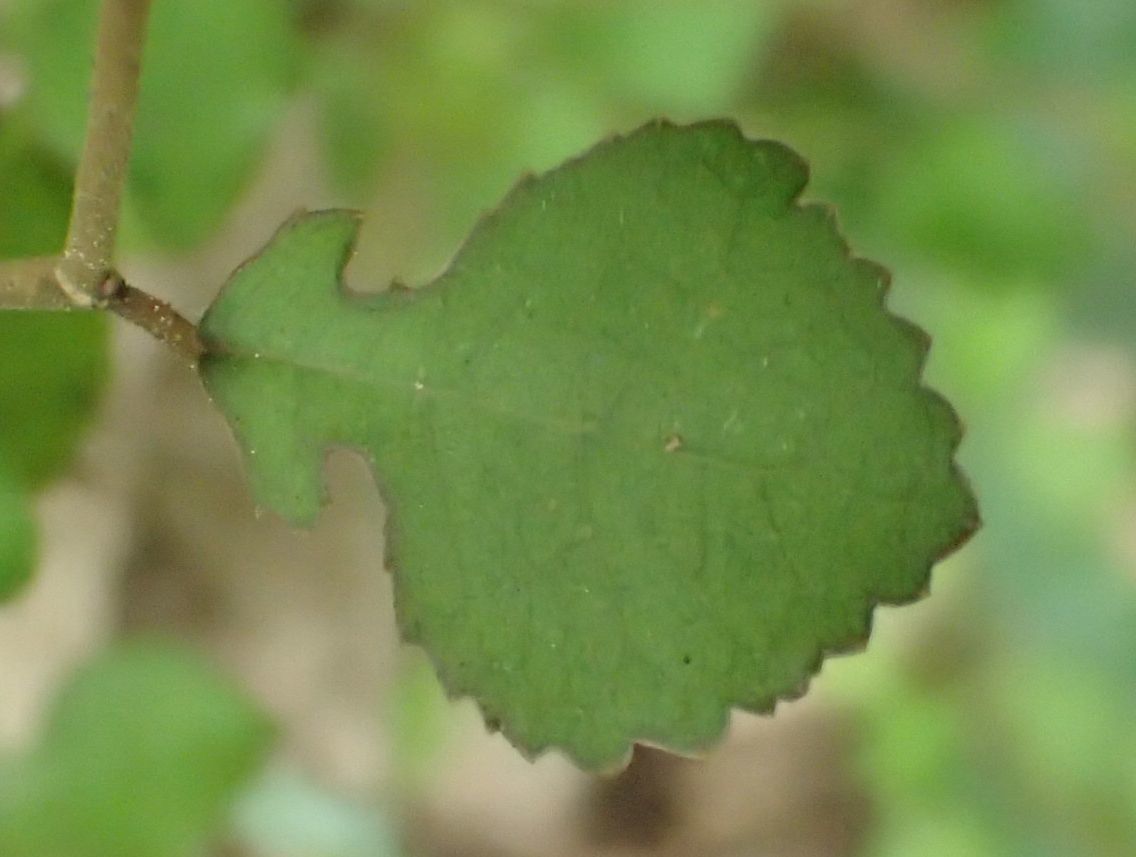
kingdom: Plantae
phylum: Tracheophyta
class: Magnoliopsida
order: Rosales
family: Moraceae
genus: Paratrophis
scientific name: Paratrophis microphylla
